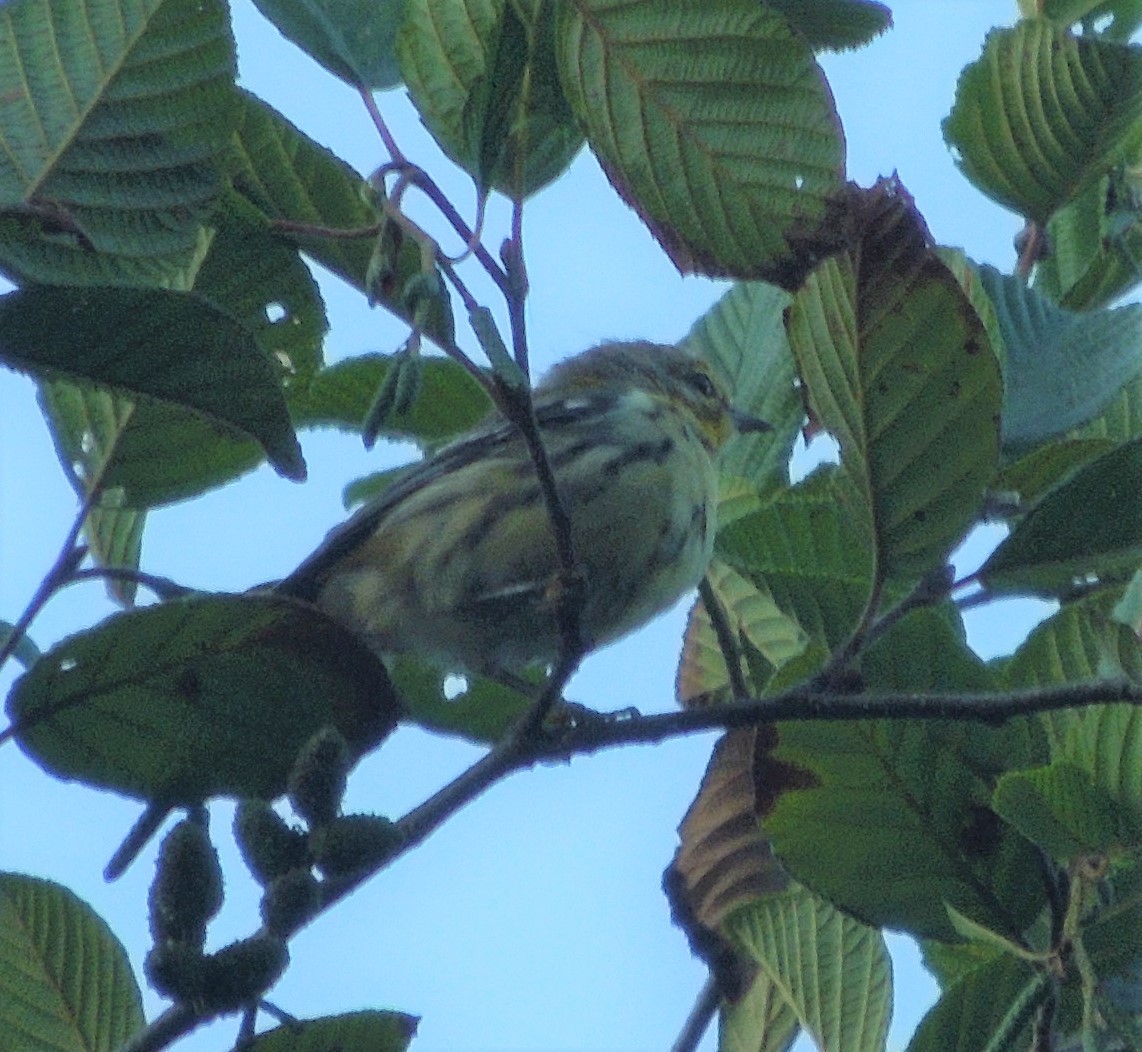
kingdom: Animalia
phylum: Chordata
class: Aves
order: Passeriformes
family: Parulidae
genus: Setophaga
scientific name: Setophaga virens
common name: Black-throated green warbler
